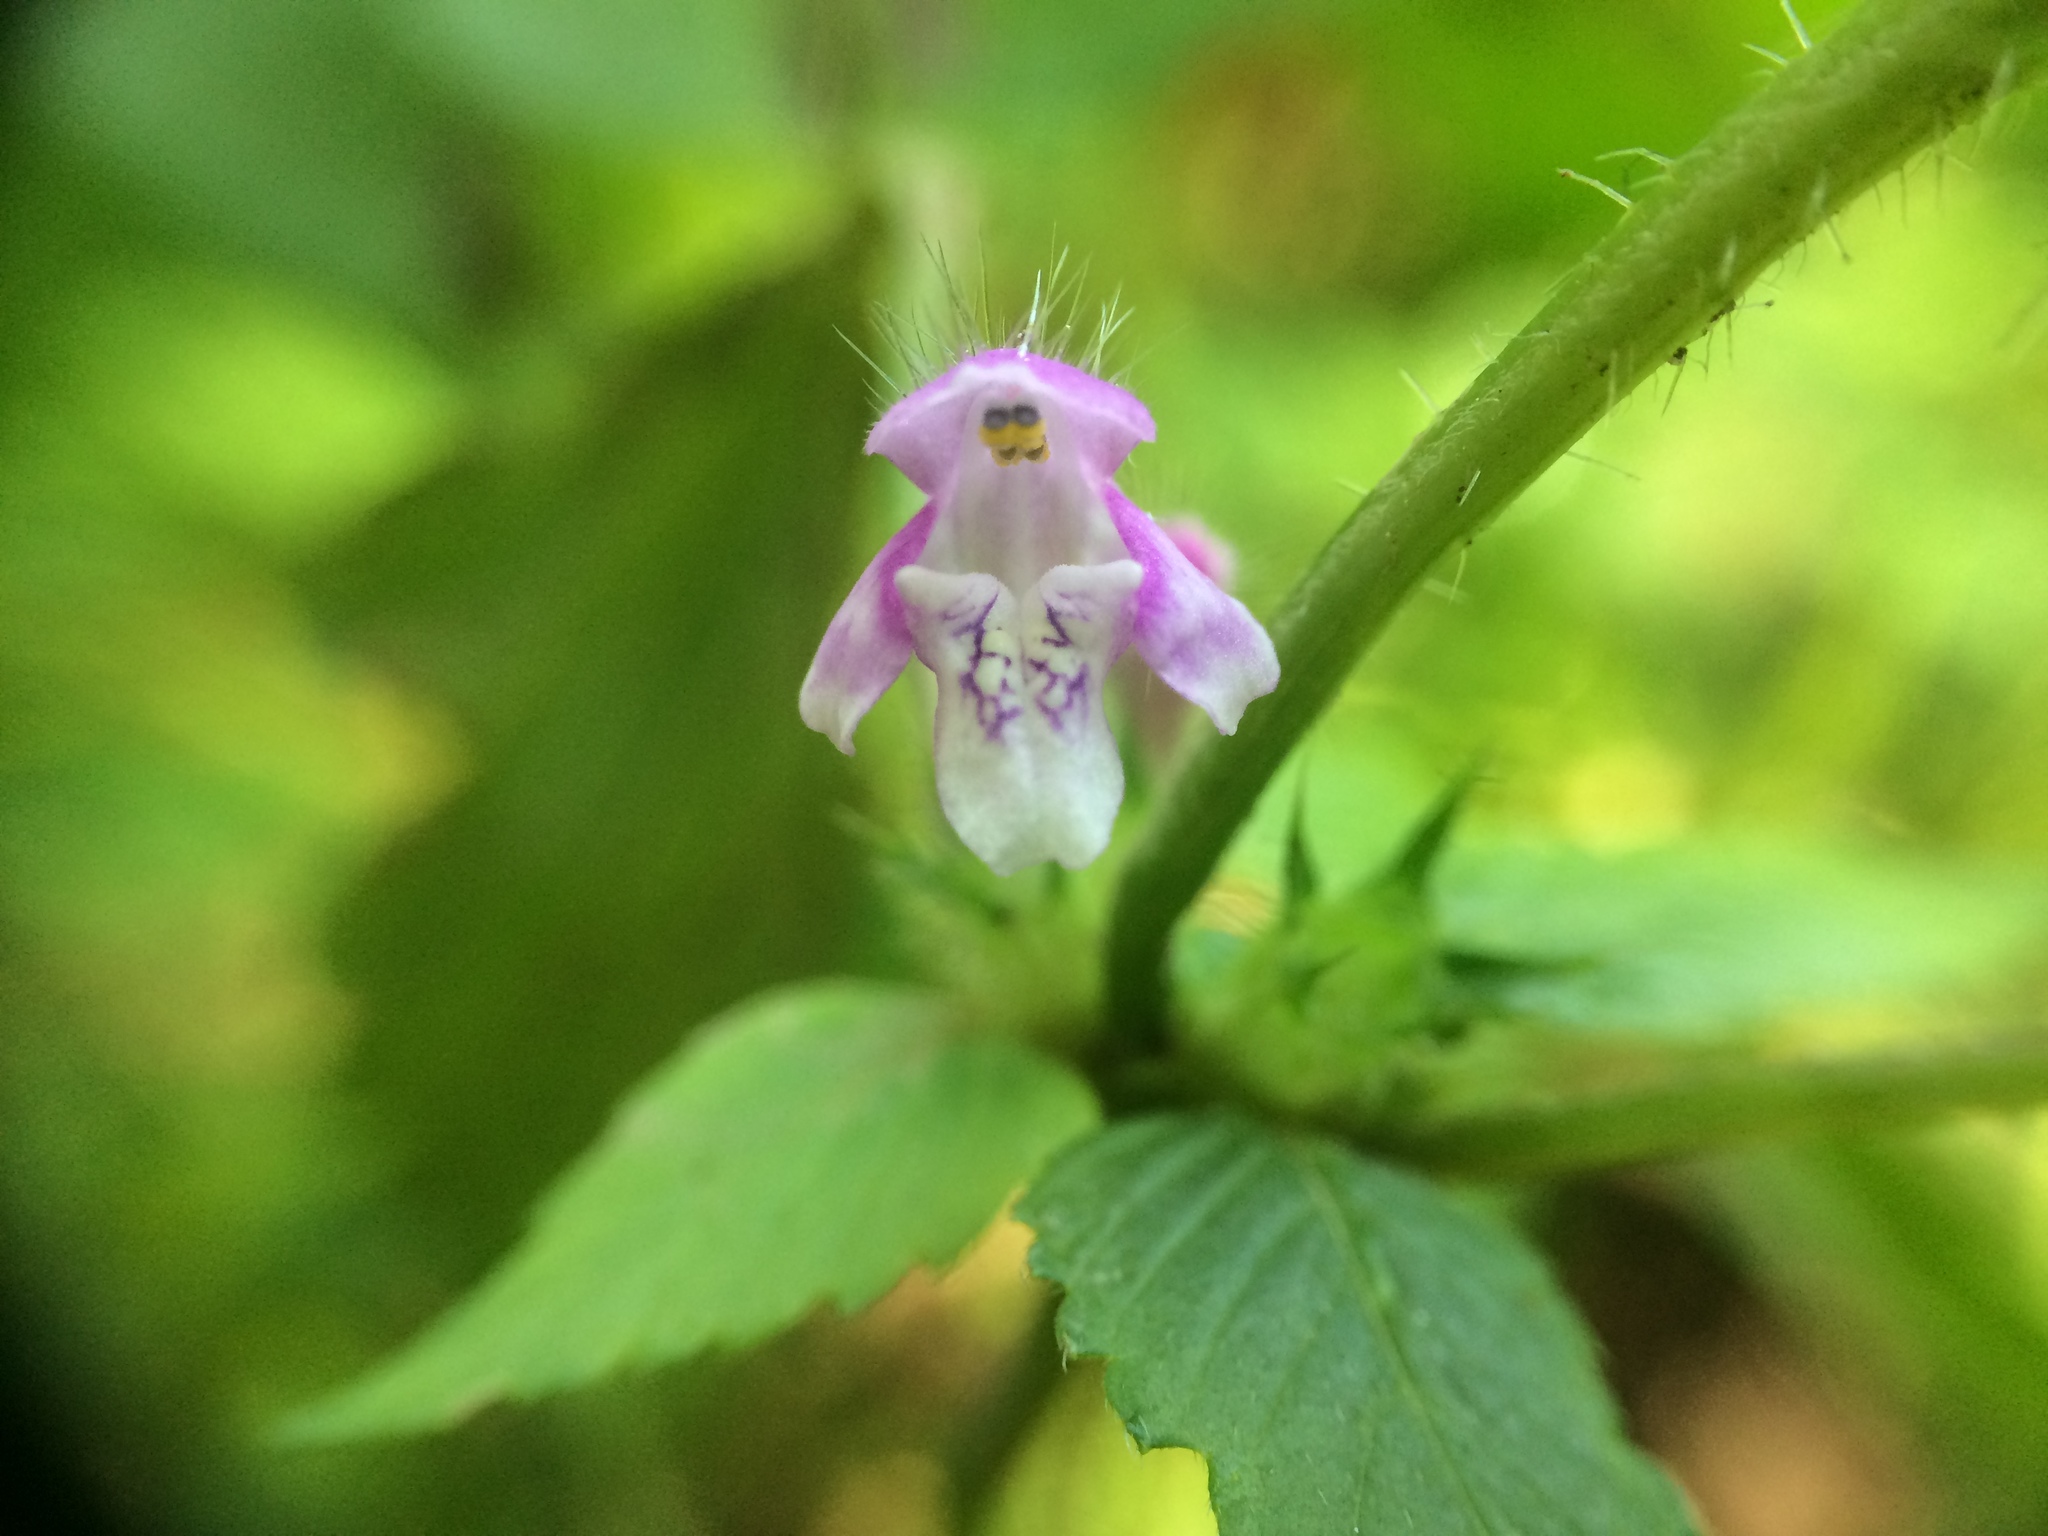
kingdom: Plantae
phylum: Tracheophyta
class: Magnoliopsida
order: Lamiales
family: Lamiaceae
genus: Galeopsis
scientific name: Galeopsis tetrahit
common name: Common hemp-nettle
